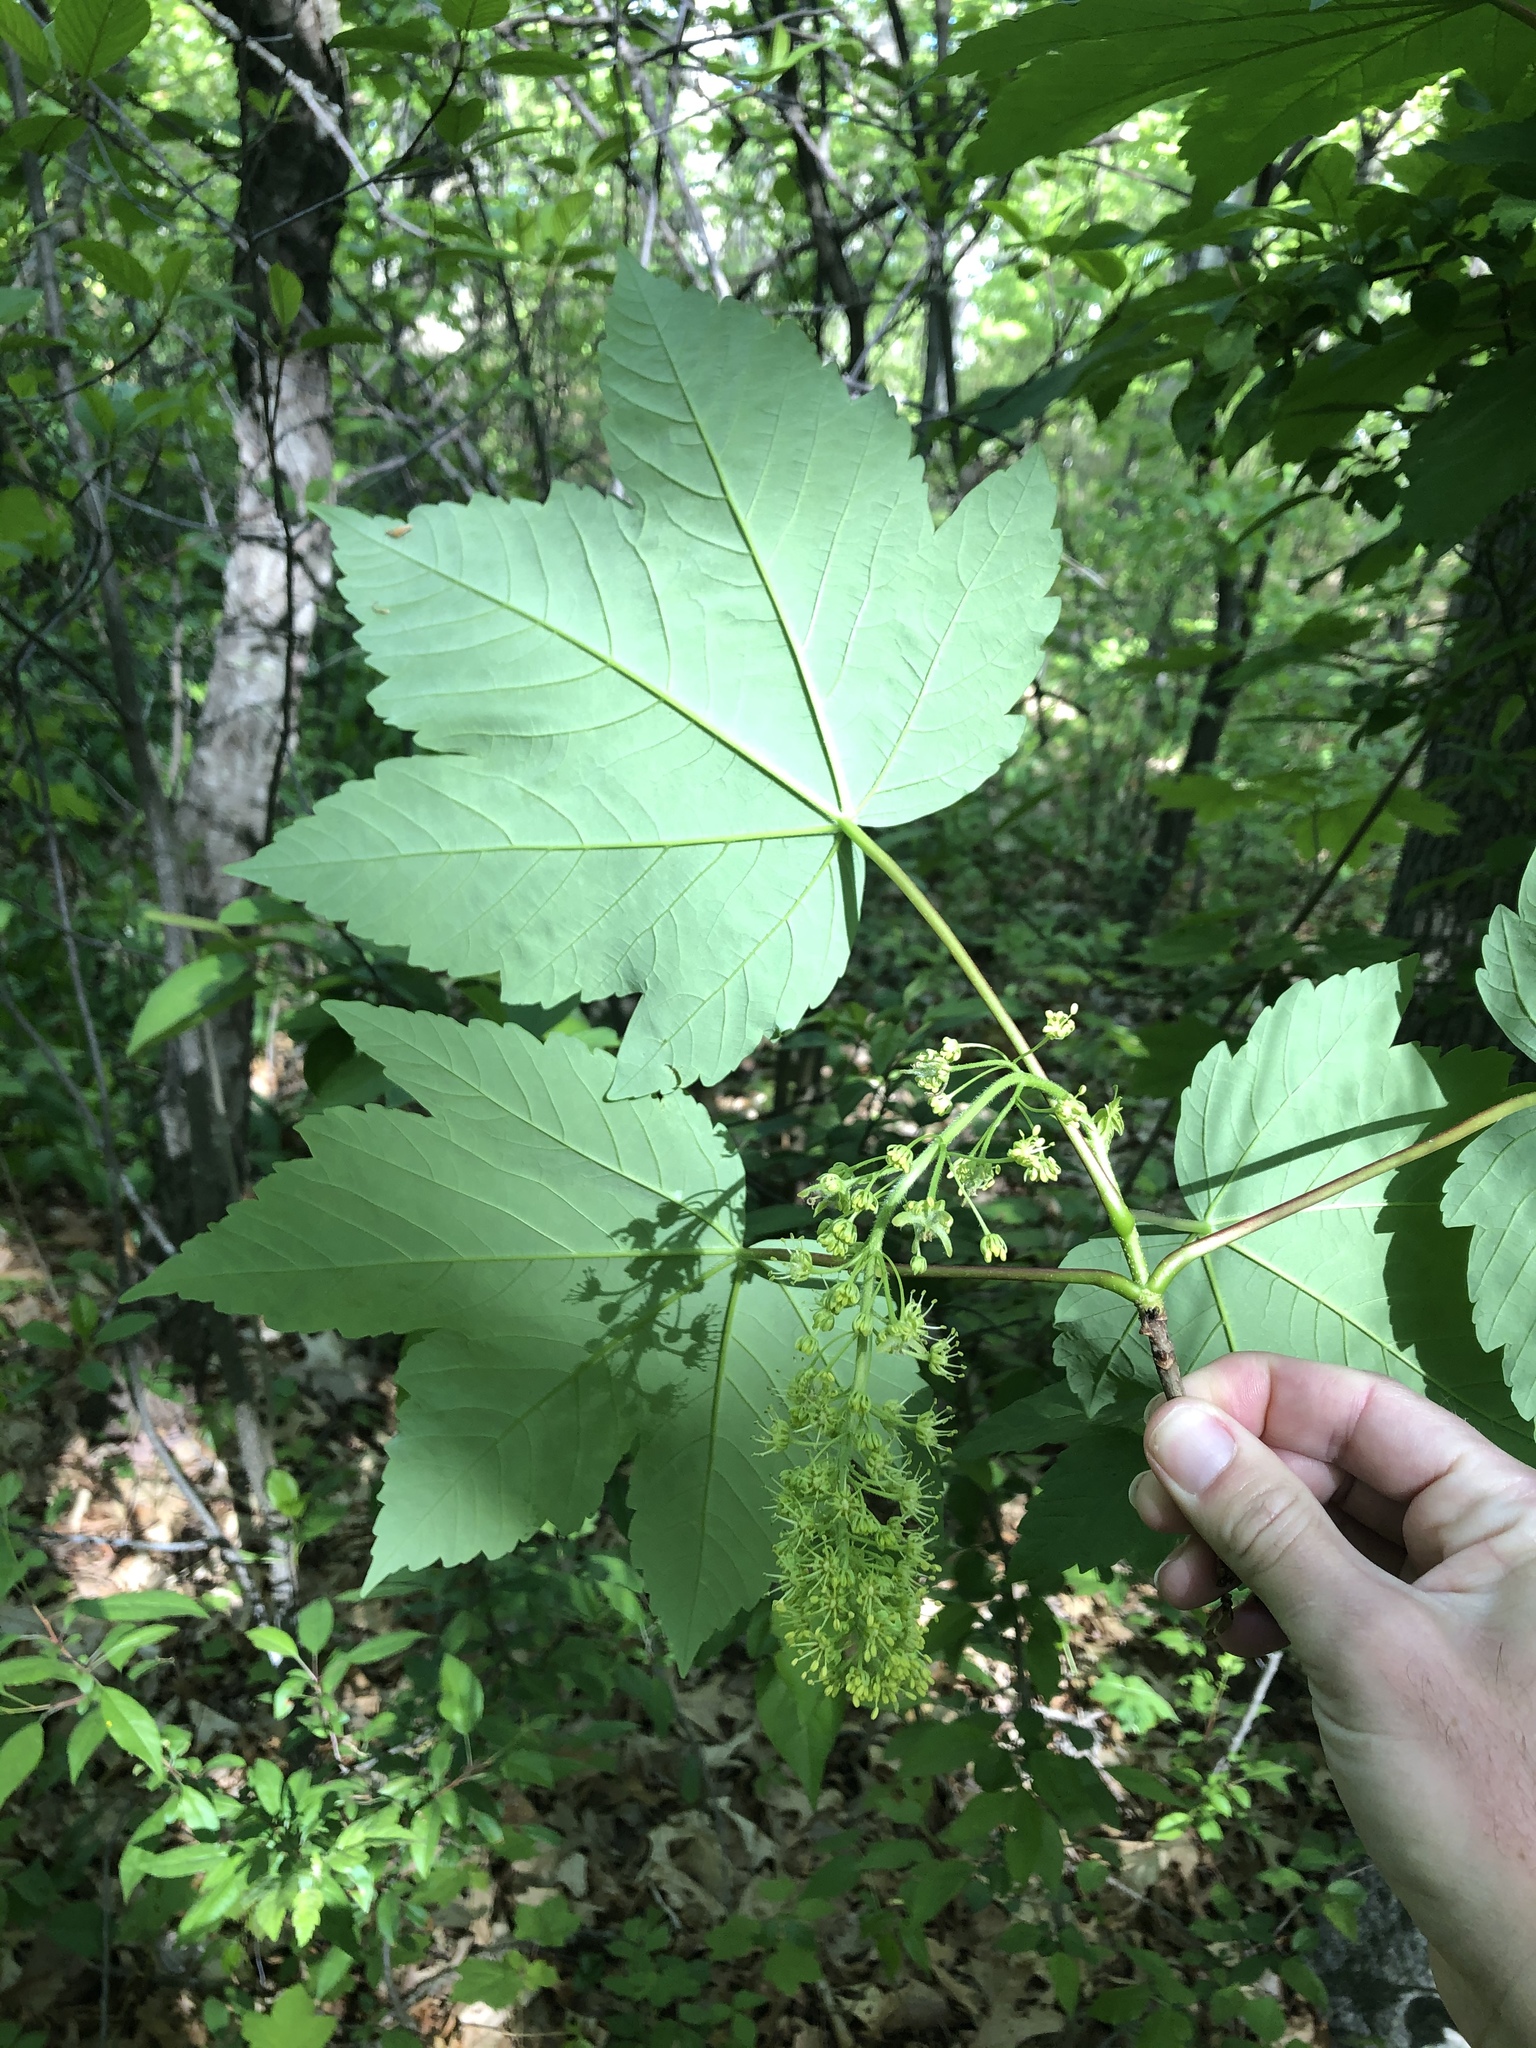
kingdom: Plantae
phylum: Tracheophyta
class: Magnoliopsida
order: Sapindales
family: Sapindaceae
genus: Acer
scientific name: Acer pseudoplatanus
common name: Sycamore
